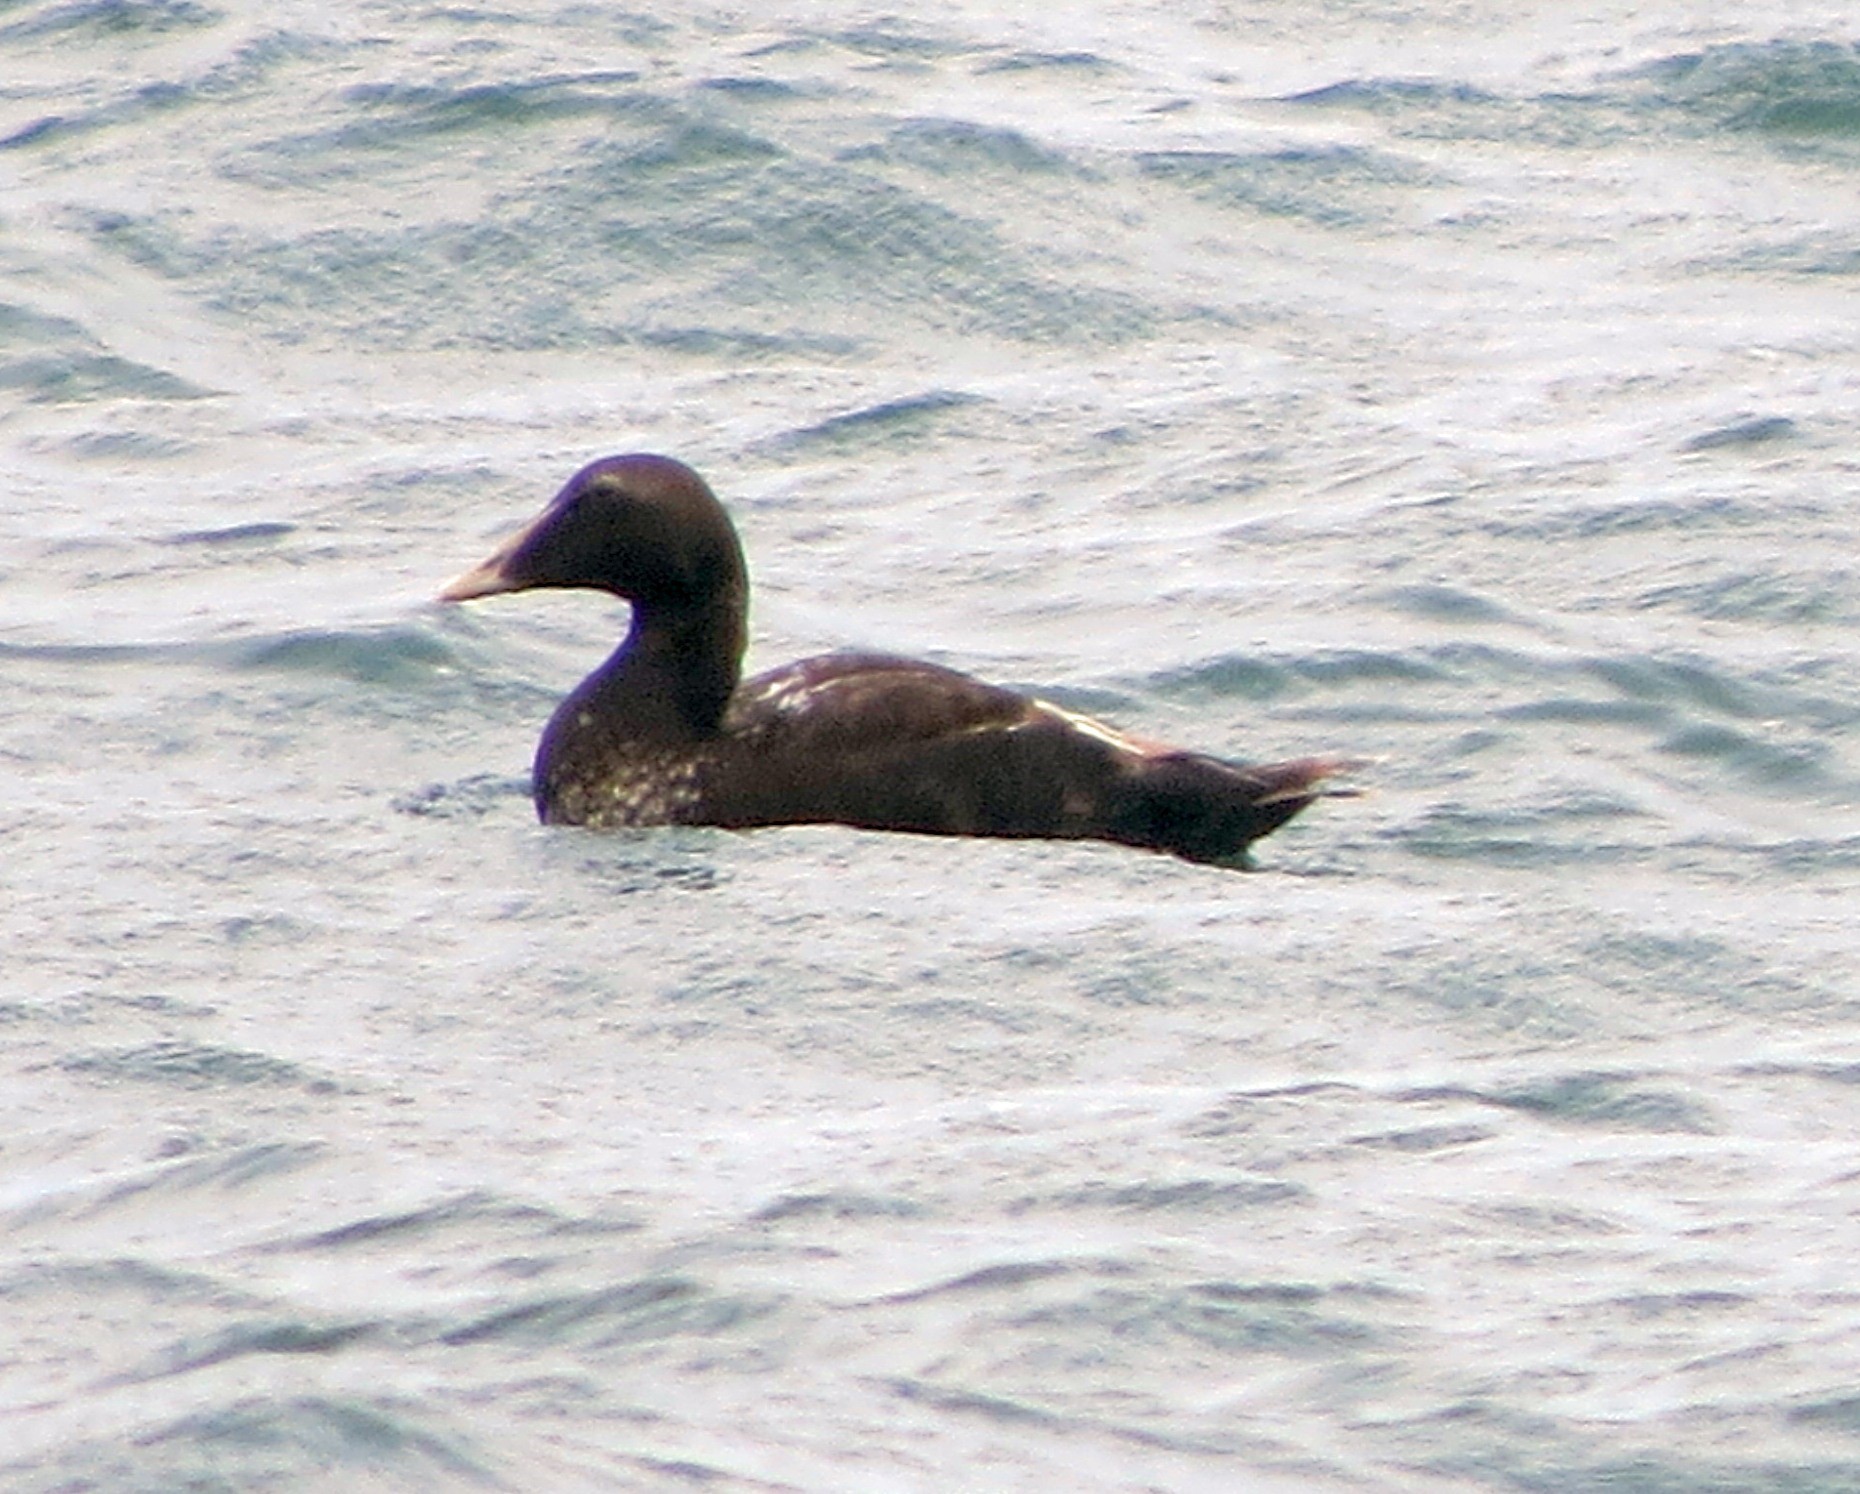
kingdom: Animalia
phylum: Chordata
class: Aves
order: Anseriformes
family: Anatidae
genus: Somateria
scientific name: Somateria mollissima
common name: Common eider
